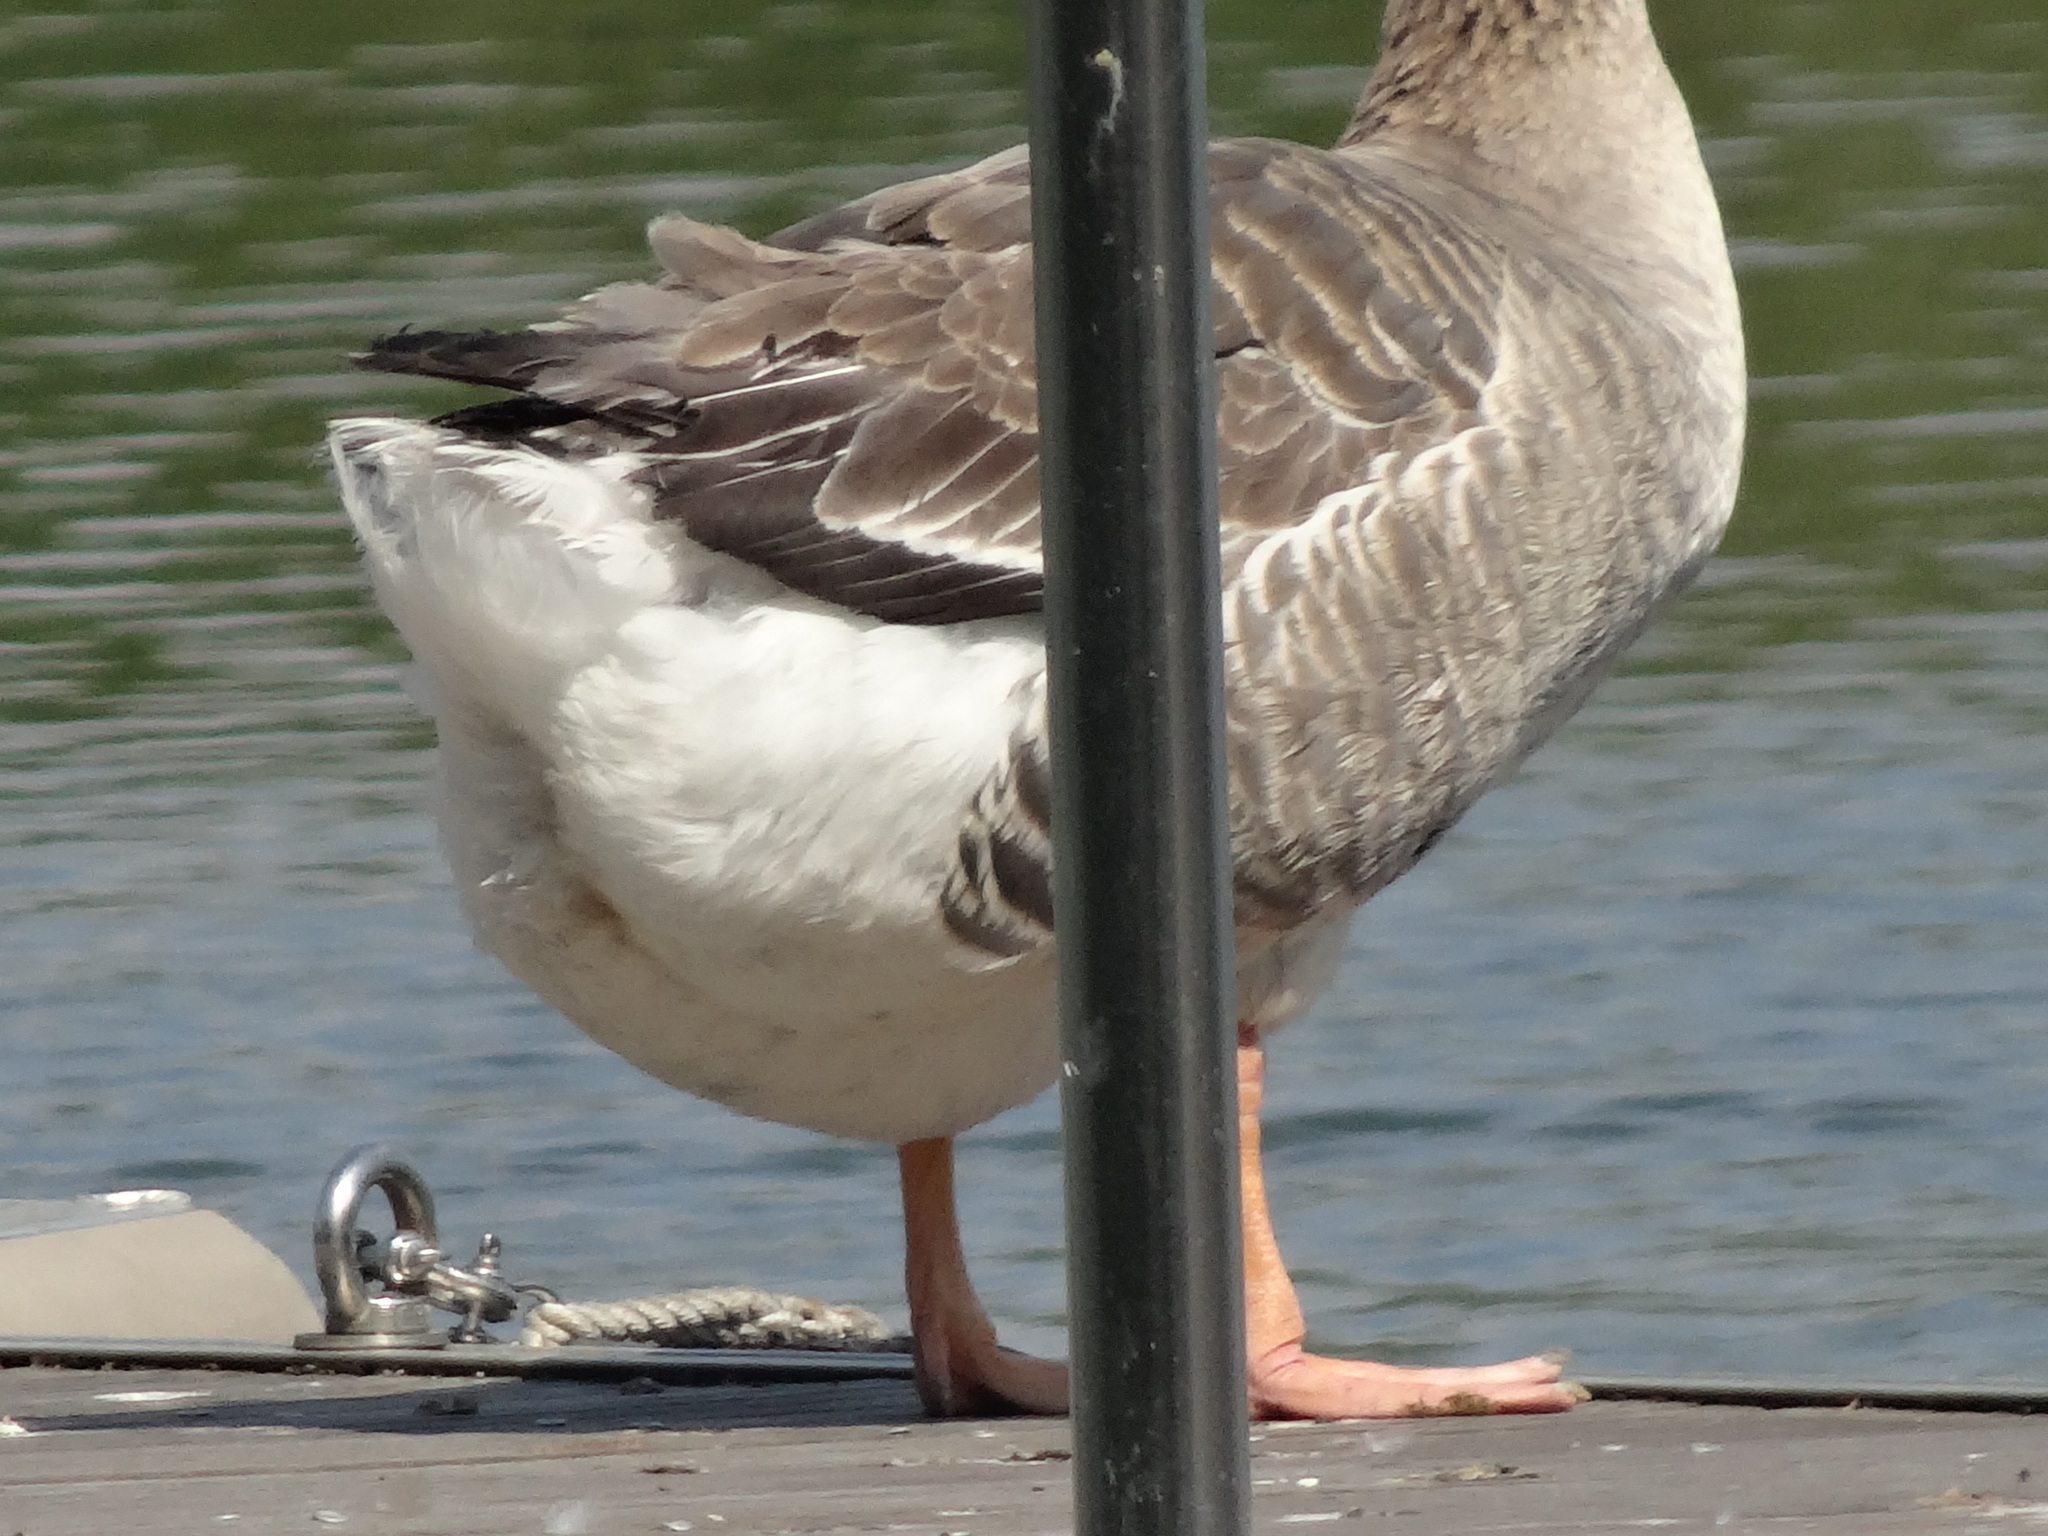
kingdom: Animalia
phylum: Chordata
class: Aves
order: Anseriformes
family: Anatidae
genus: Anser
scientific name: Anser anser
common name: Greylag goose
